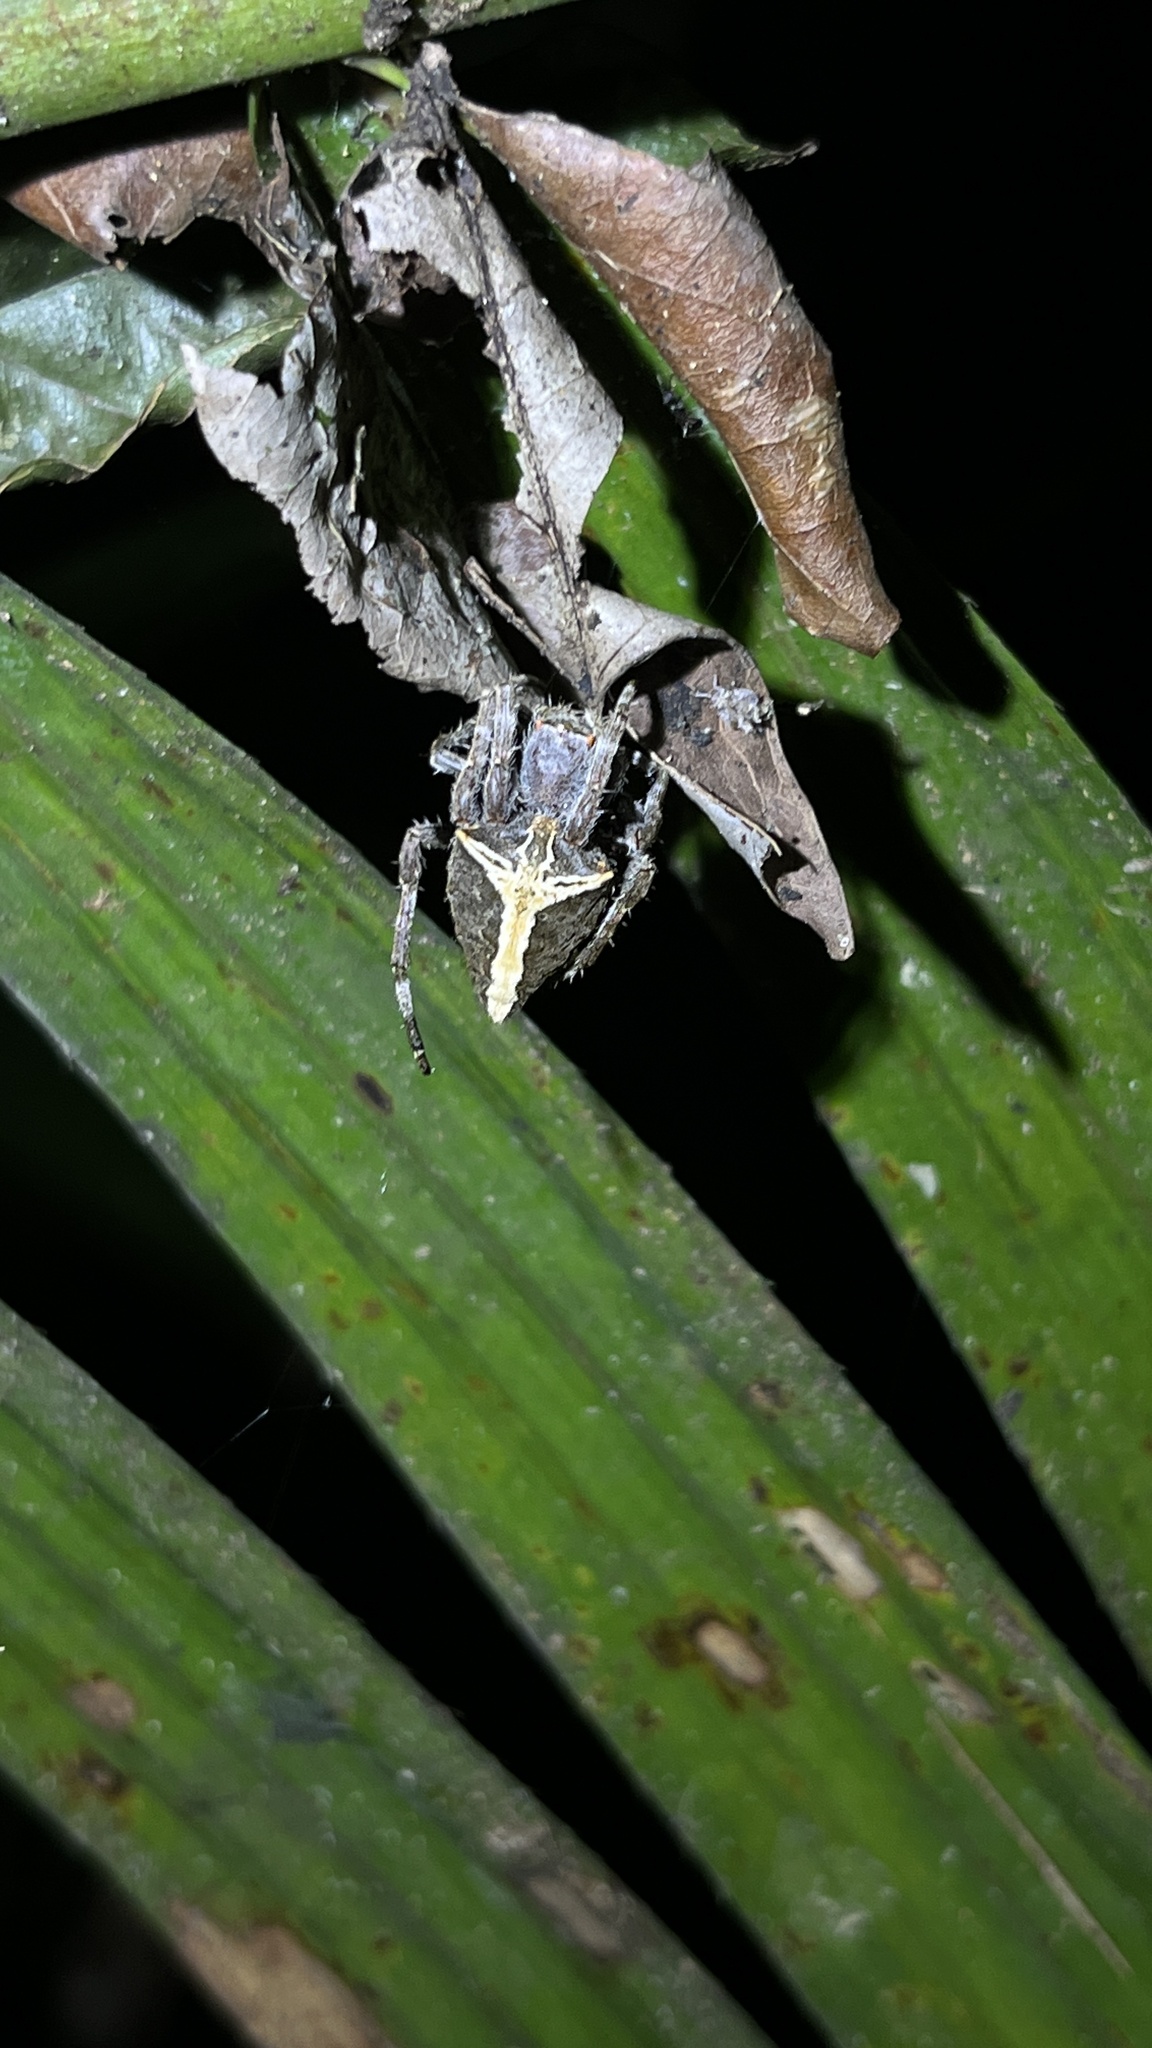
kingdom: Animalia
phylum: Arthropoda
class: Arachnida
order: Araneae
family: Araneidae
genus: Parawixia
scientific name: Parawixia dehaani
